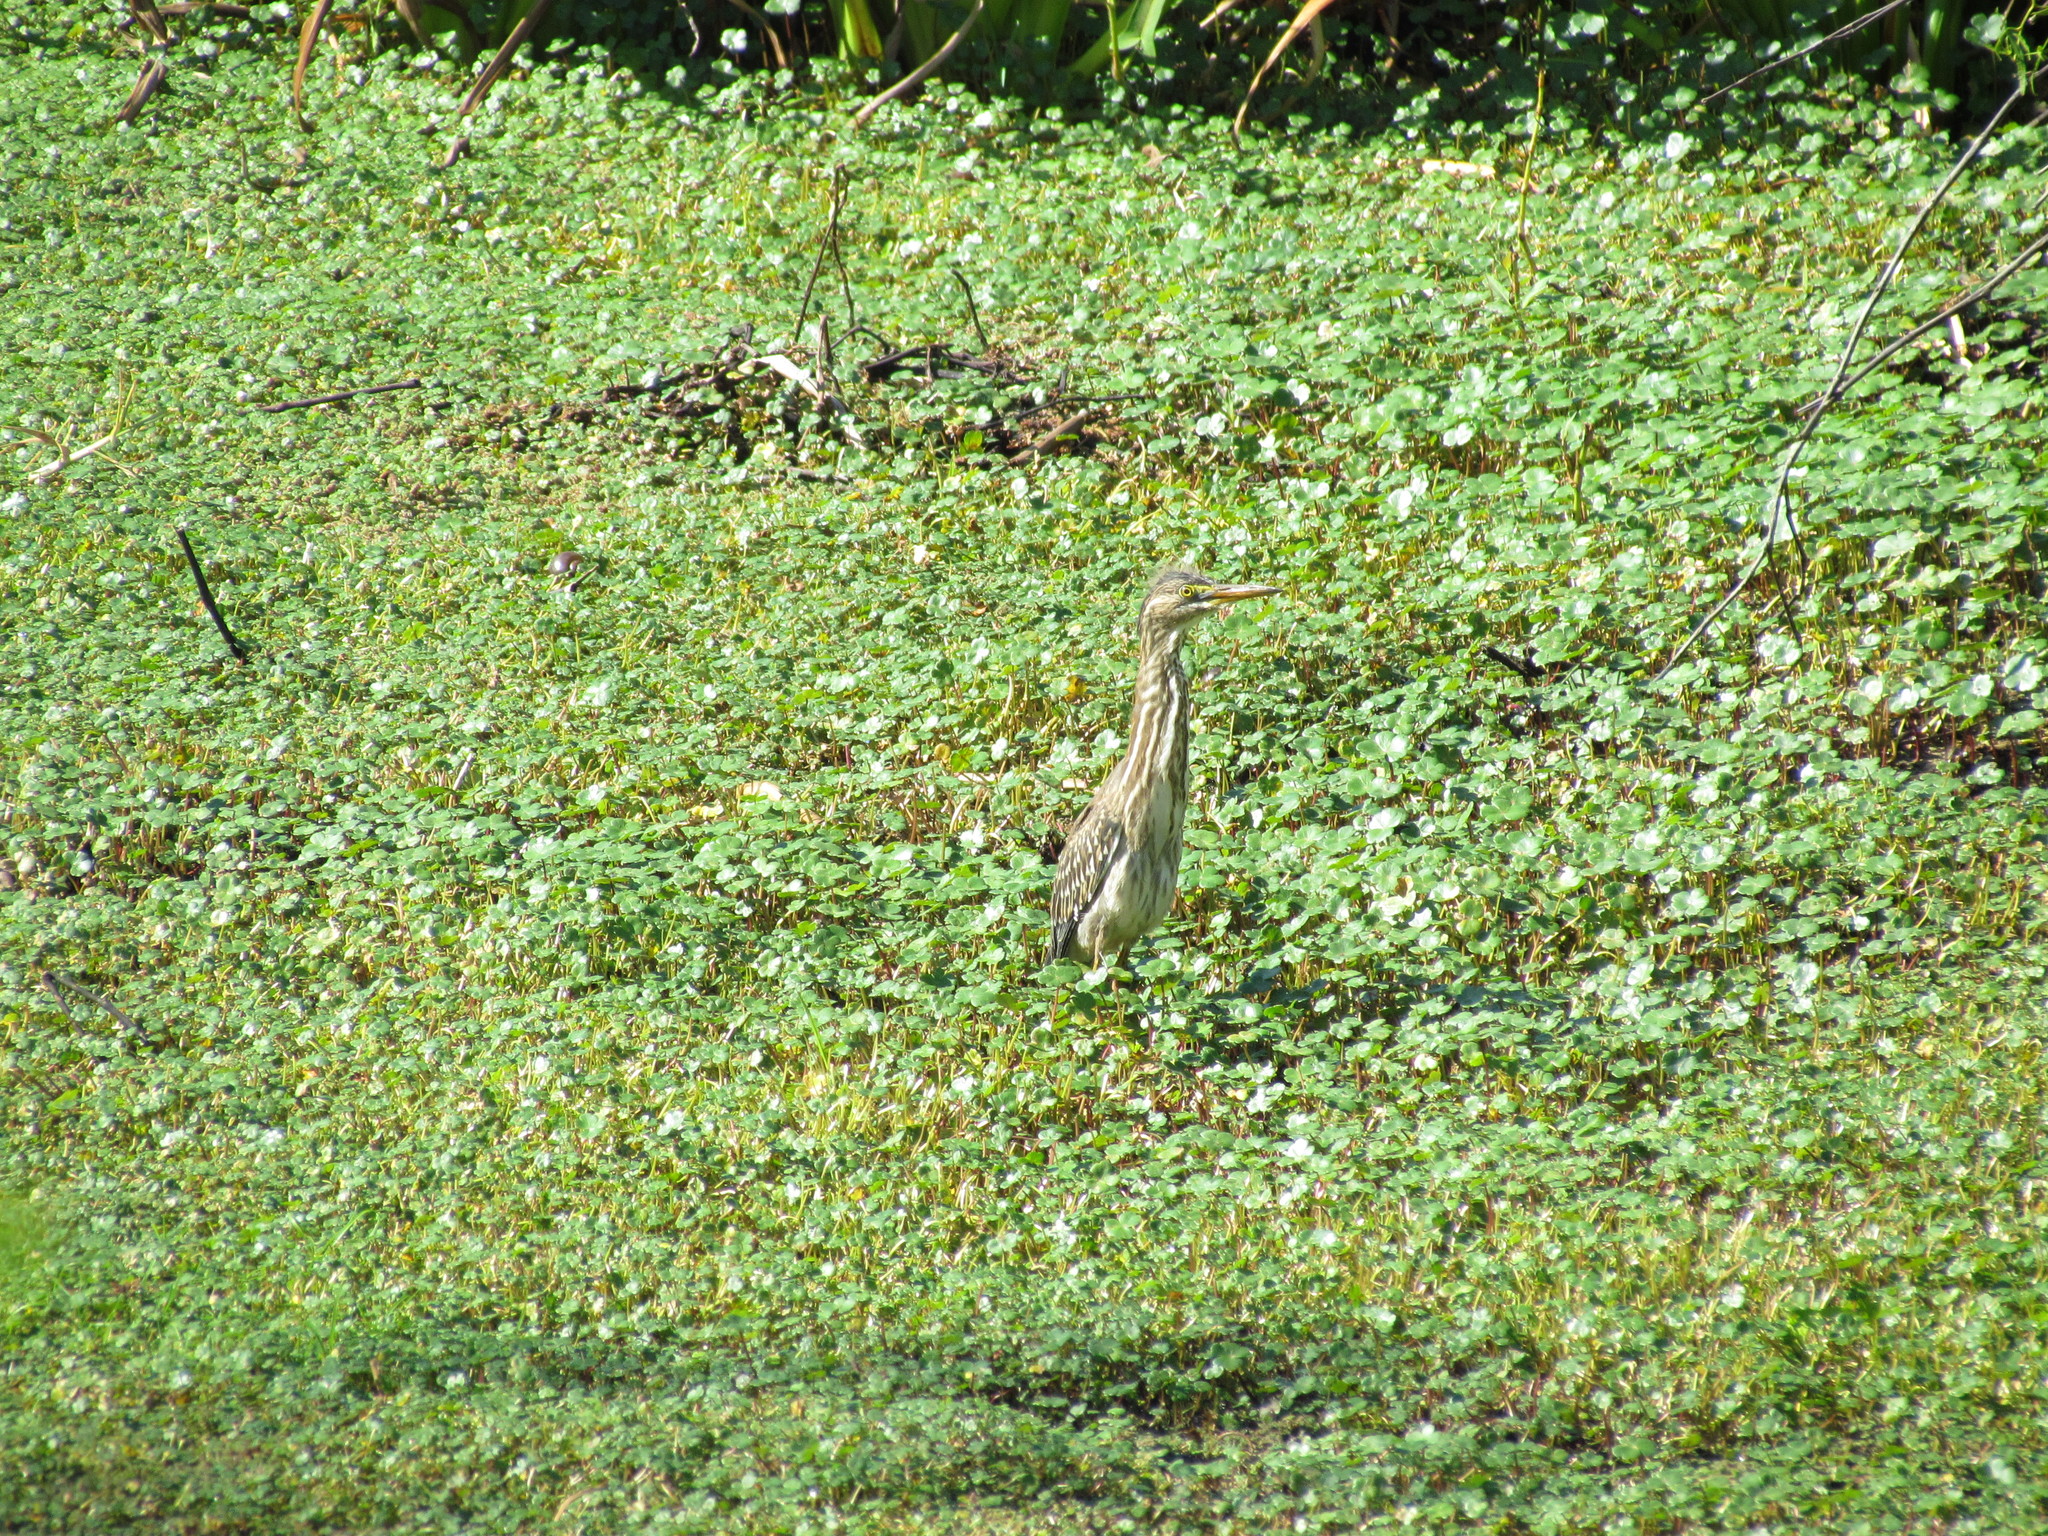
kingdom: Animalia
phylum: Chordata
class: Aves
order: Pelecaniformes
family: Ardeidae
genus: Butorides
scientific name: Butorides striata
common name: Striated heron
